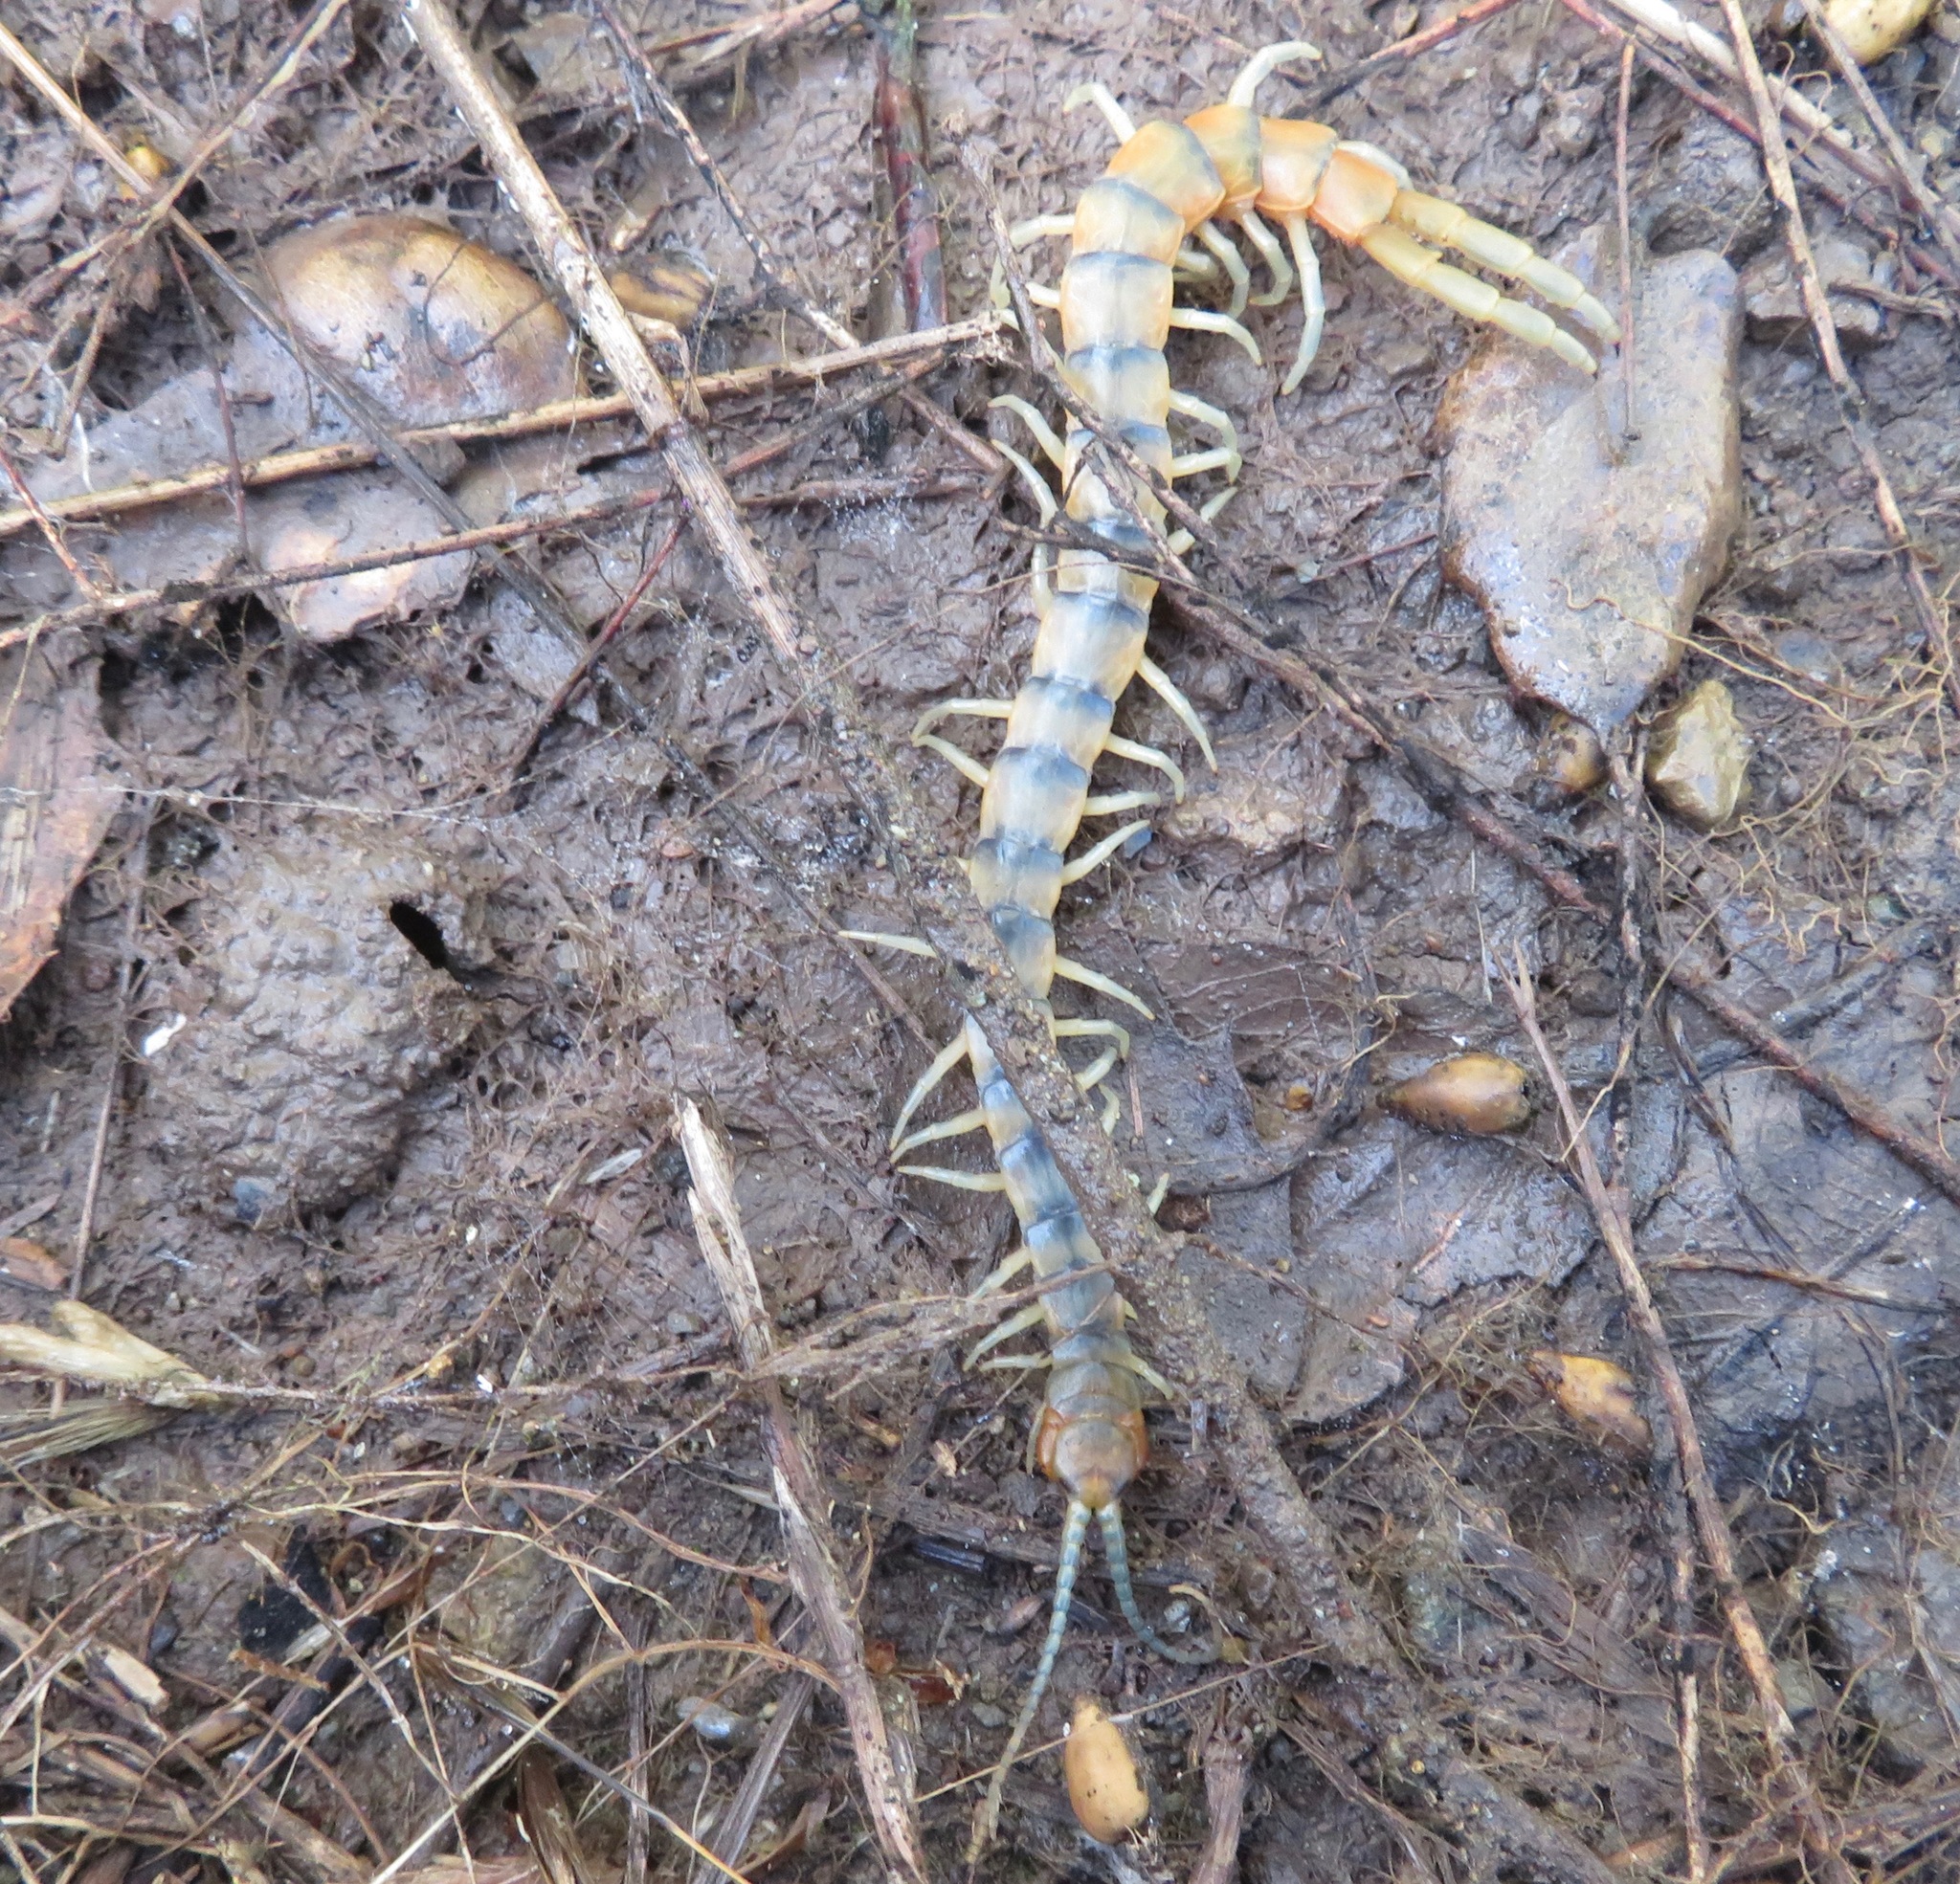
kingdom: Animalia
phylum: Arthropoda
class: Chilopoda
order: Scolopendromorpha
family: Scolopendridae
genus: Scolopendra
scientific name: Scolopendra polymorpha
